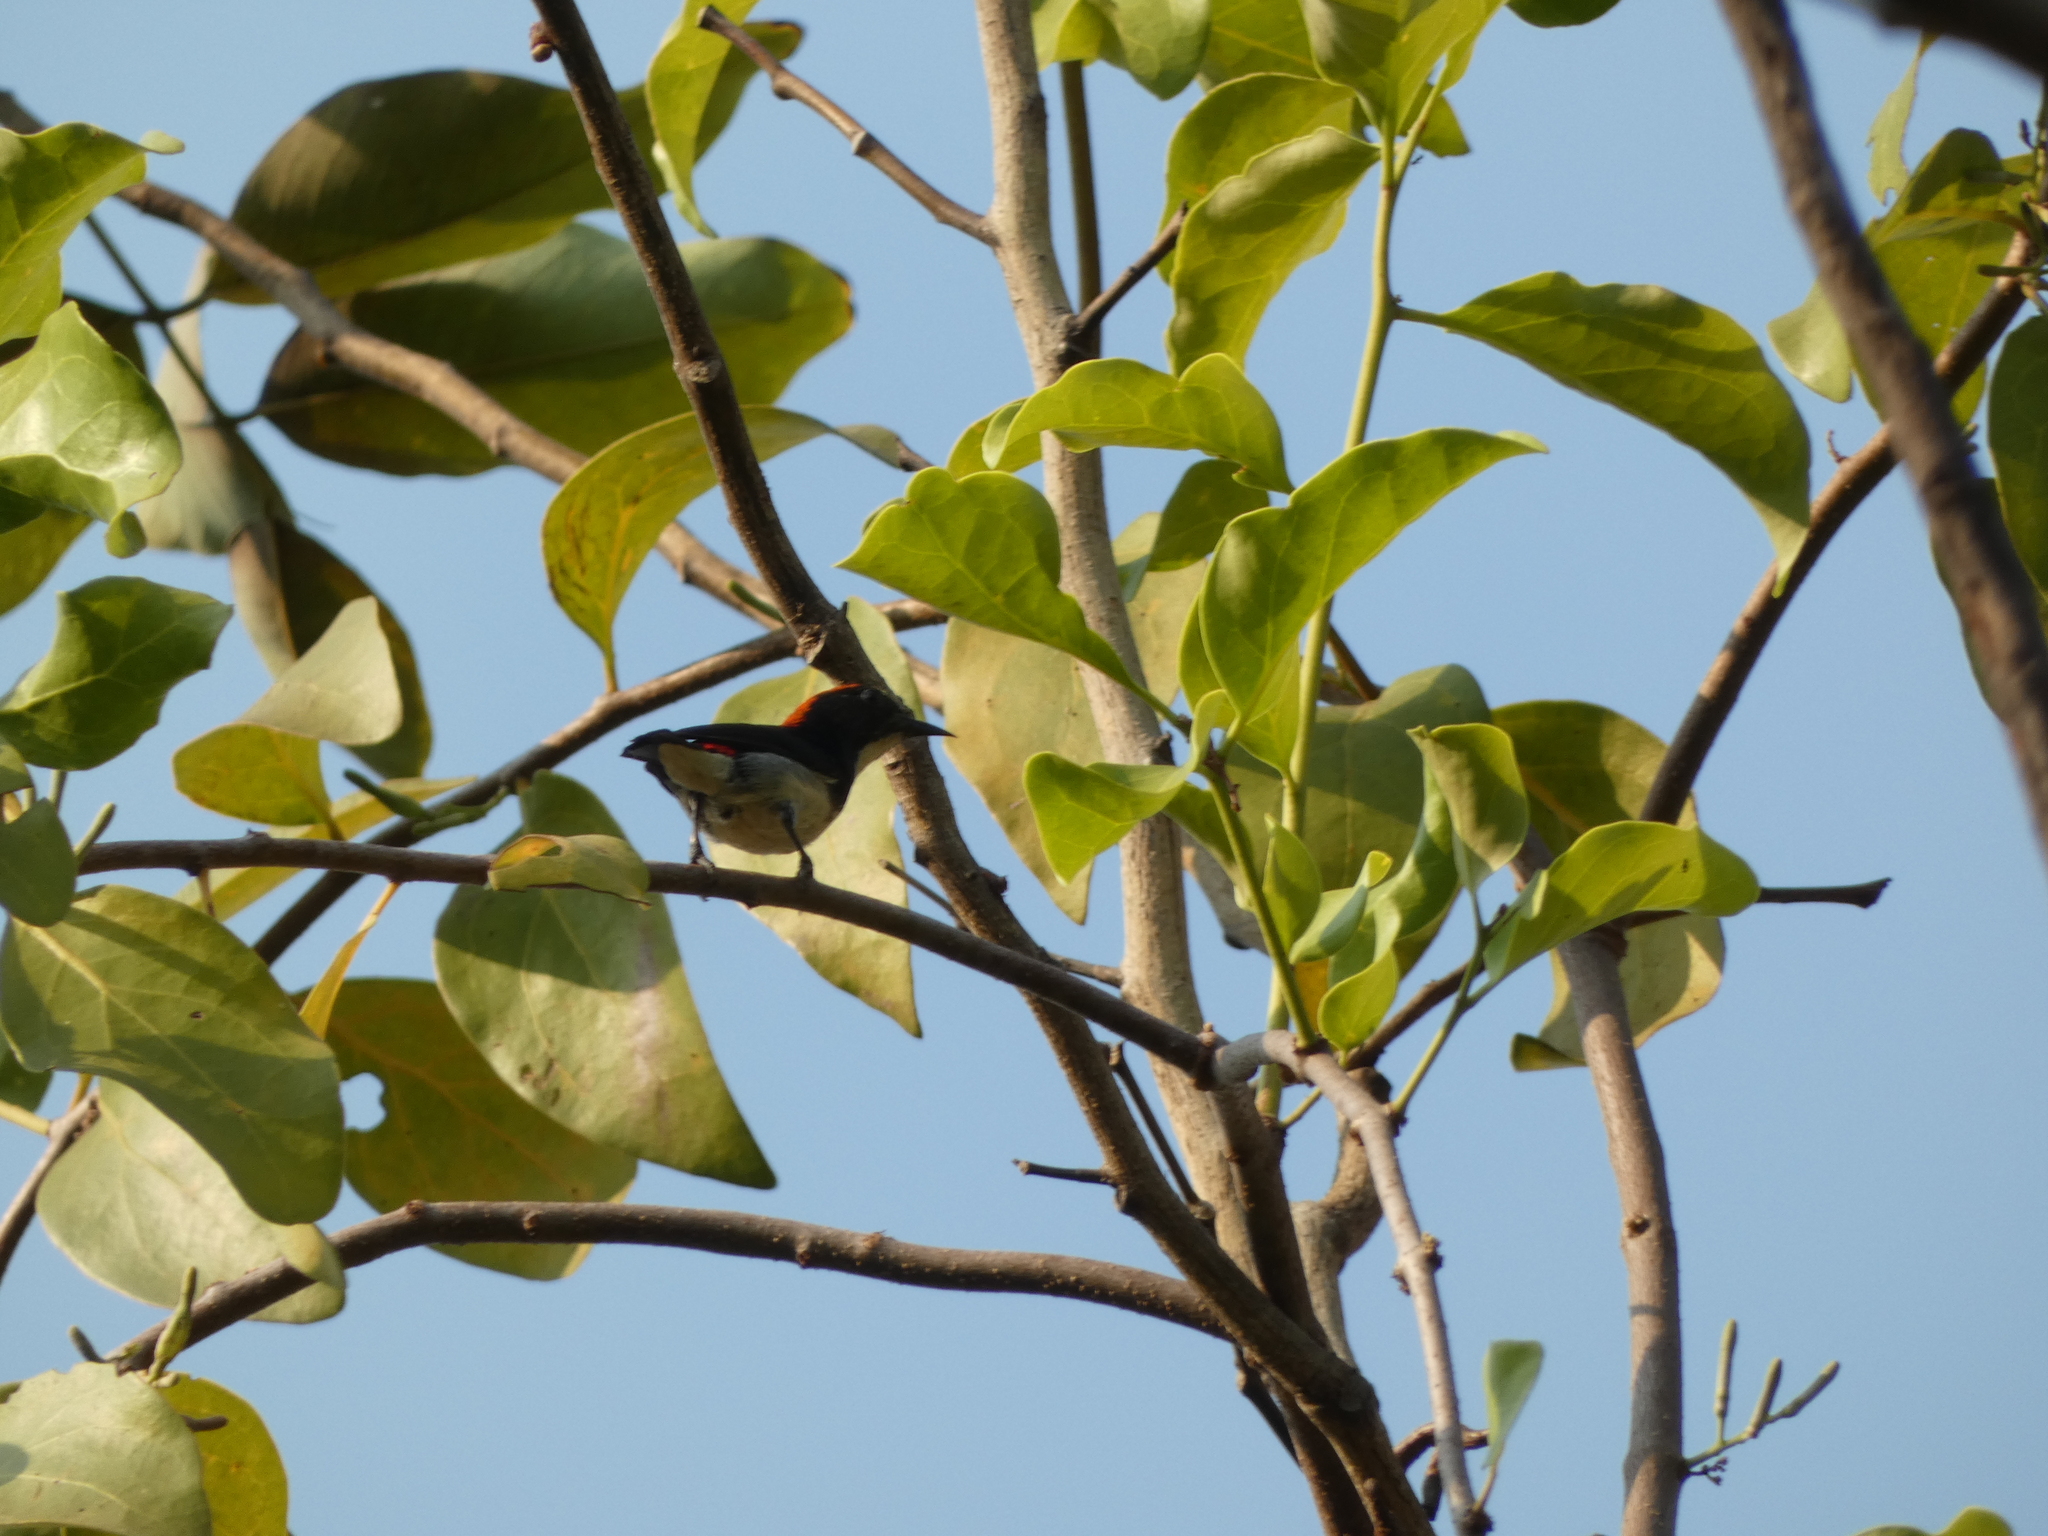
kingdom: Animalia
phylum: Chordata
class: Aves
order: Passeriformes
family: Dicaeidae
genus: Dicaeum
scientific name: Dicaeum cruentatum
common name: Scarlet-backed flowerpecker
